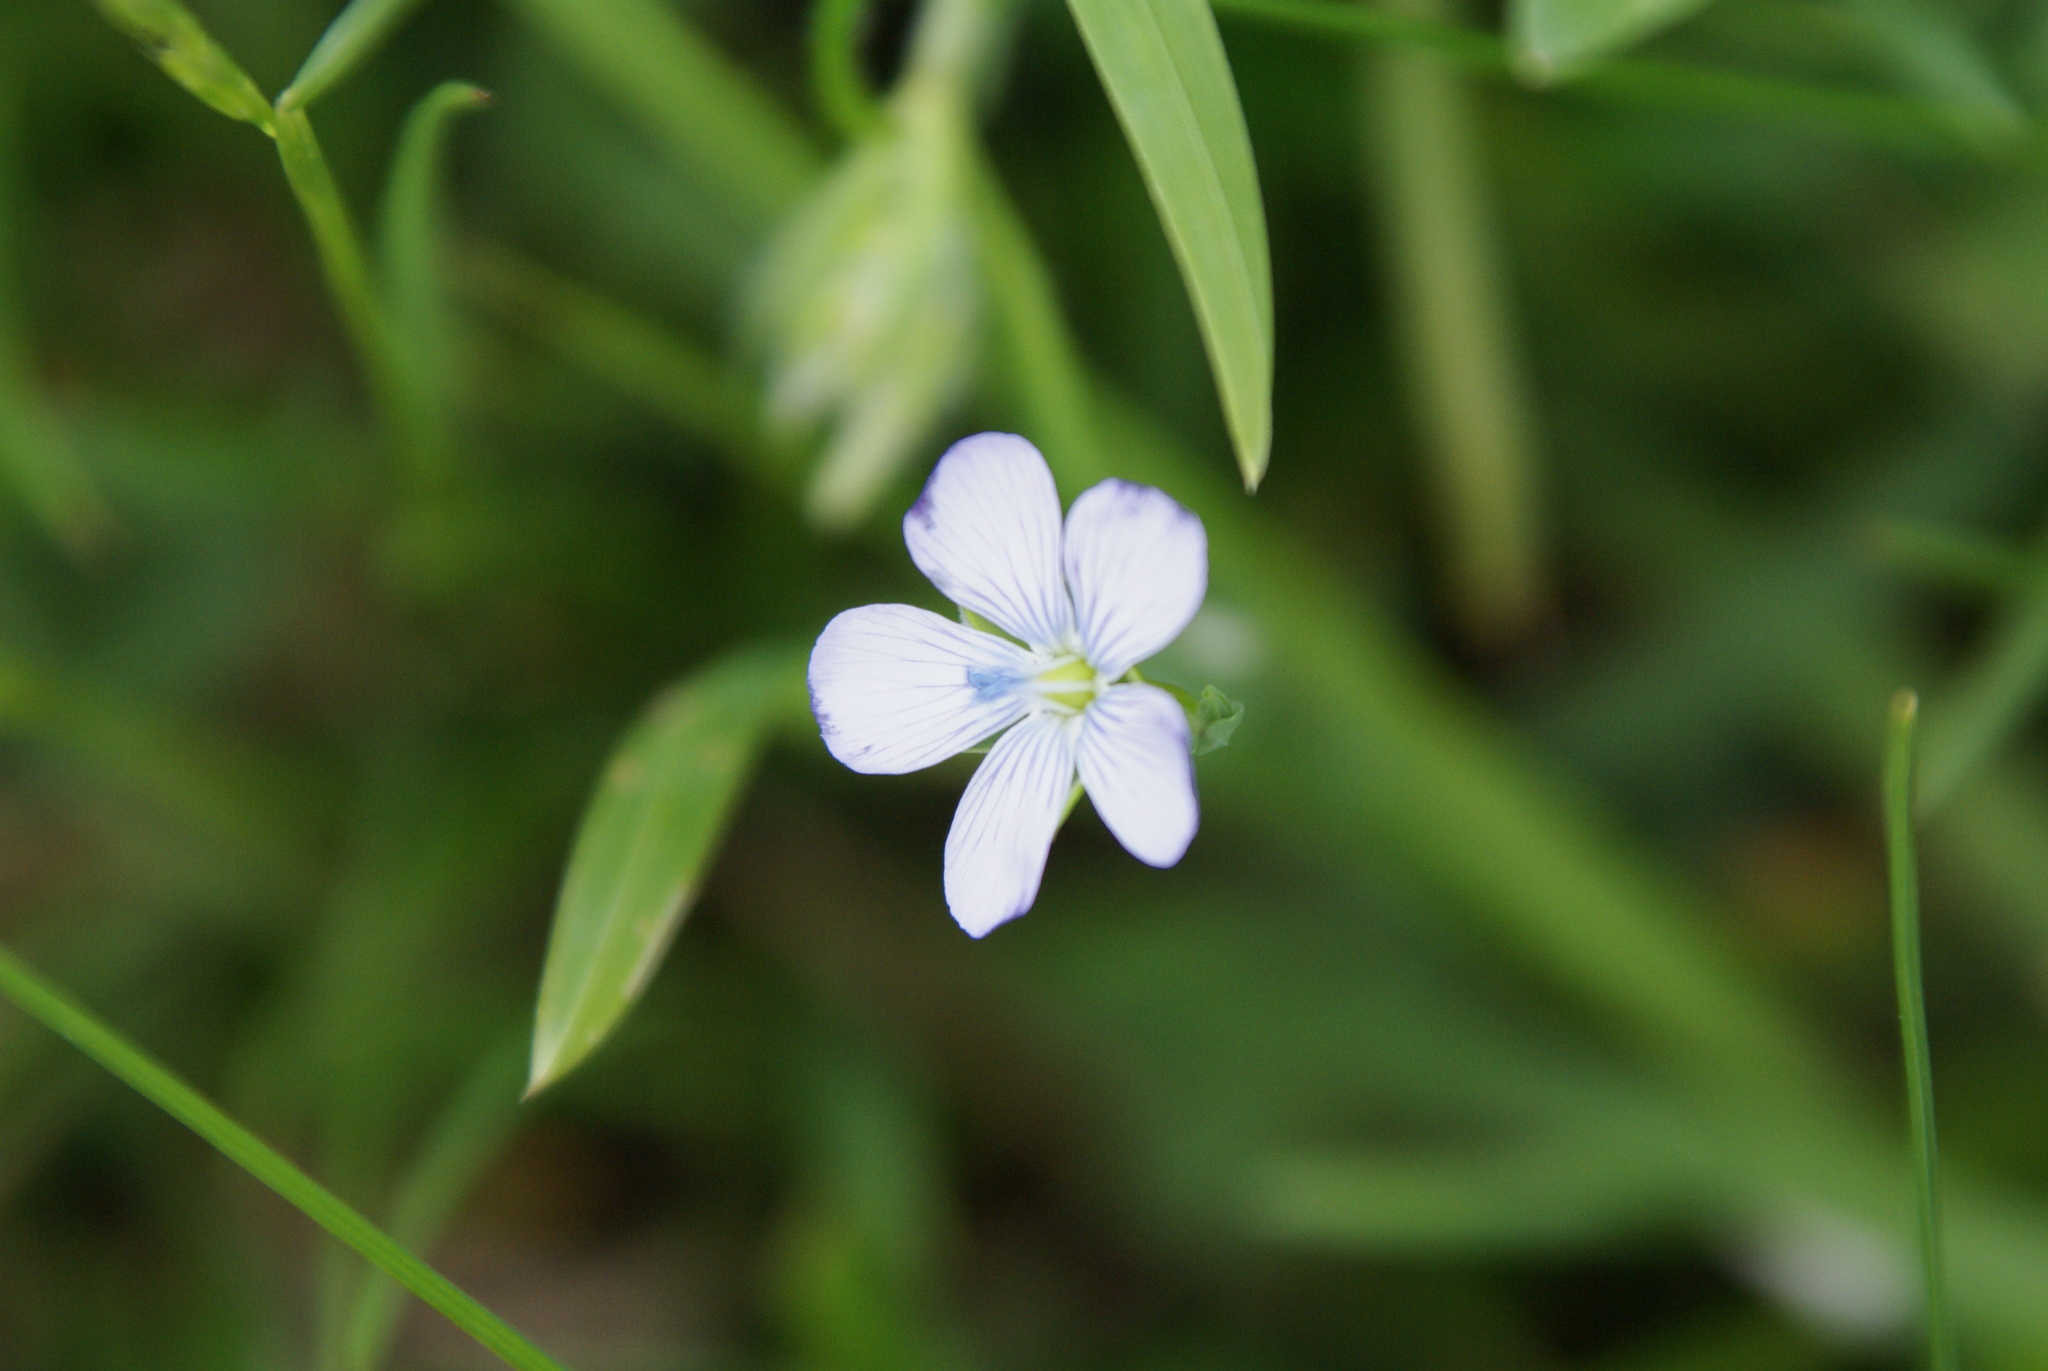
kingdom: Plantae
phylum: Tracheophyta
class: Magnoliopsida
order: Malpighiales
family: Linaceae
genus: Linum
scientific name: Linum bienne
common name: Pale flax
